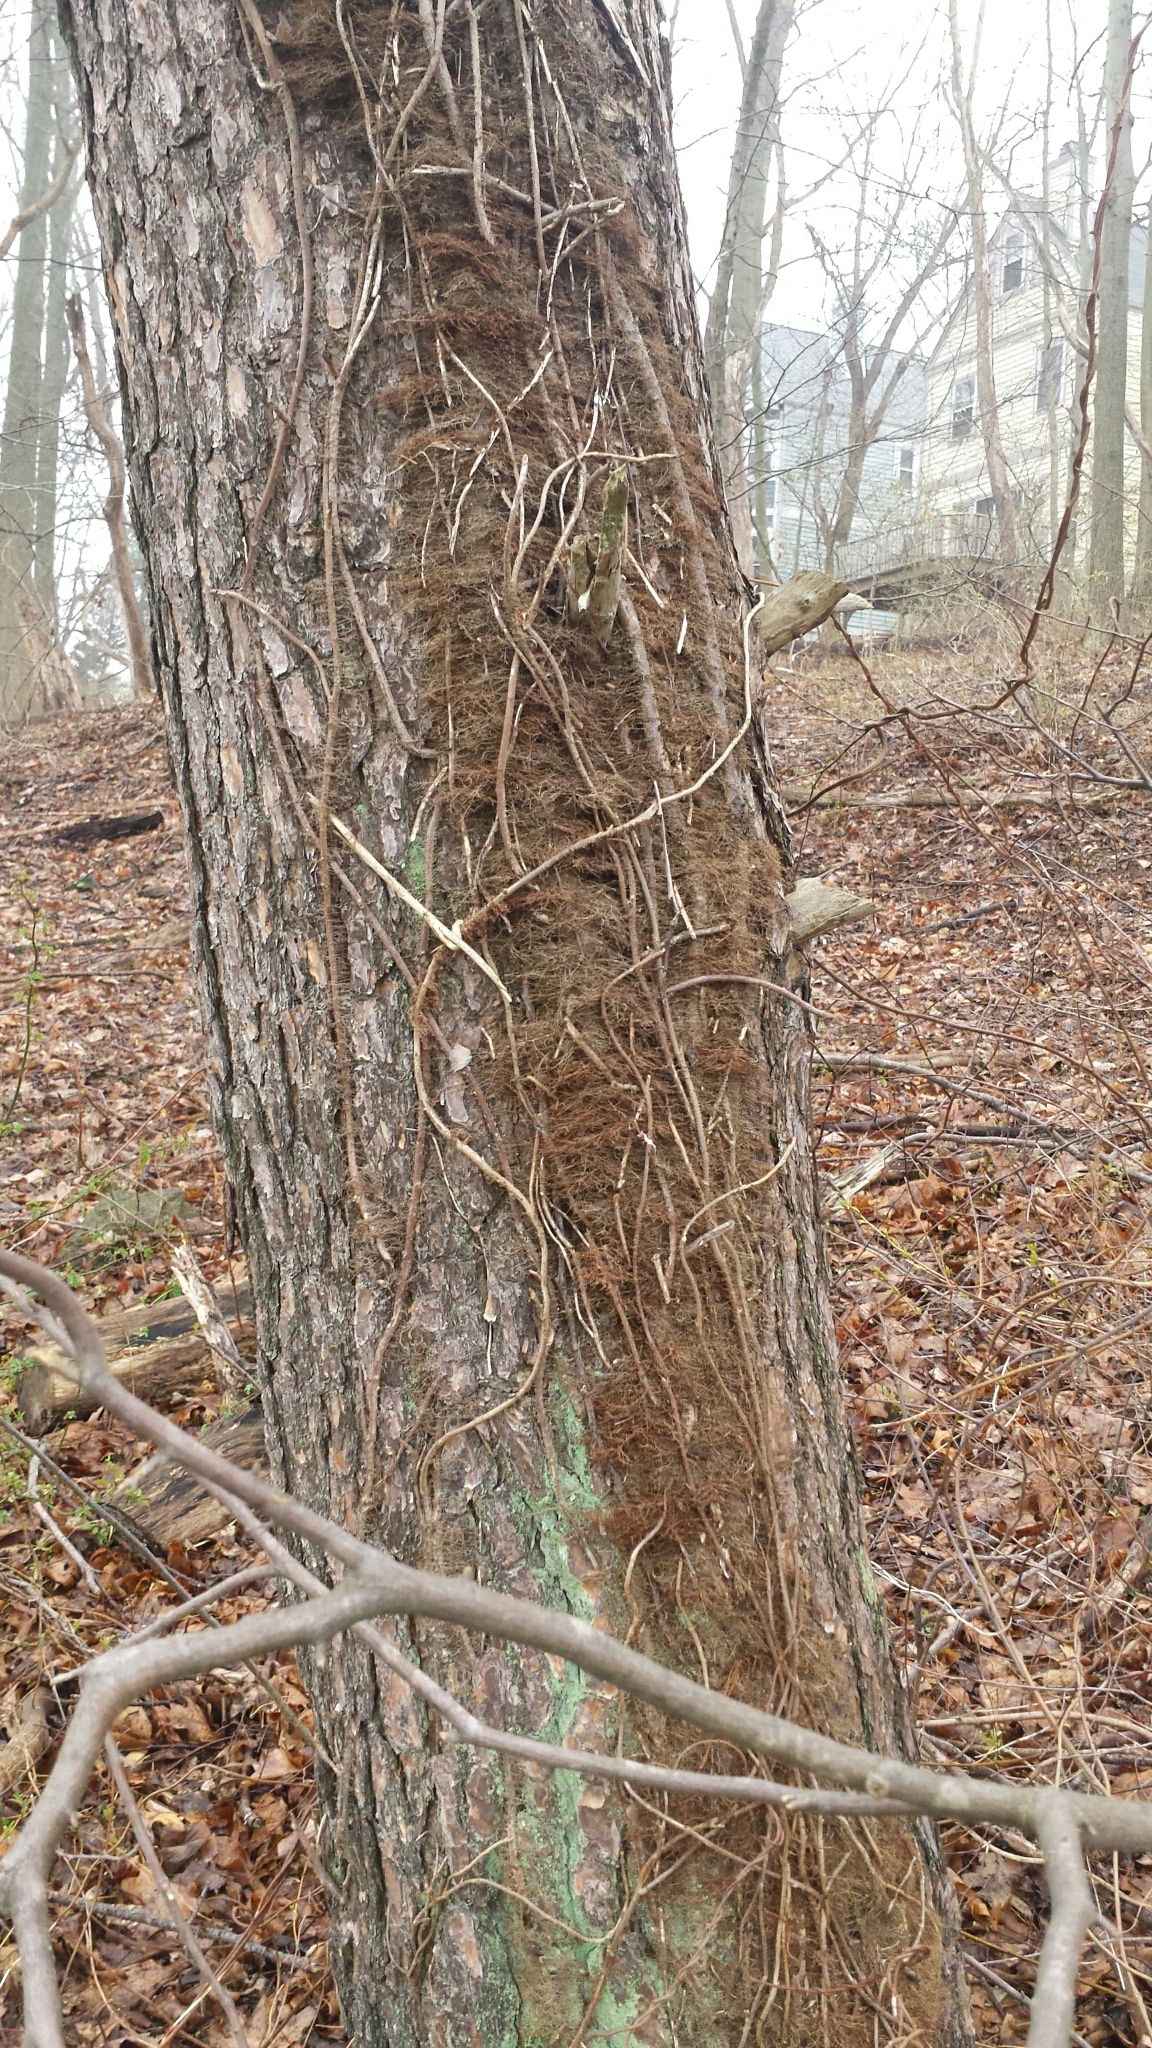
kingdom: Plantae
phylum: Tracheophyta
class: Magnoliopsida
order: Sapindales
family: Anacardiaceae
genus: Toxicodendron
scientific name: Toxicodendron radicans
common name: Poison ivy
